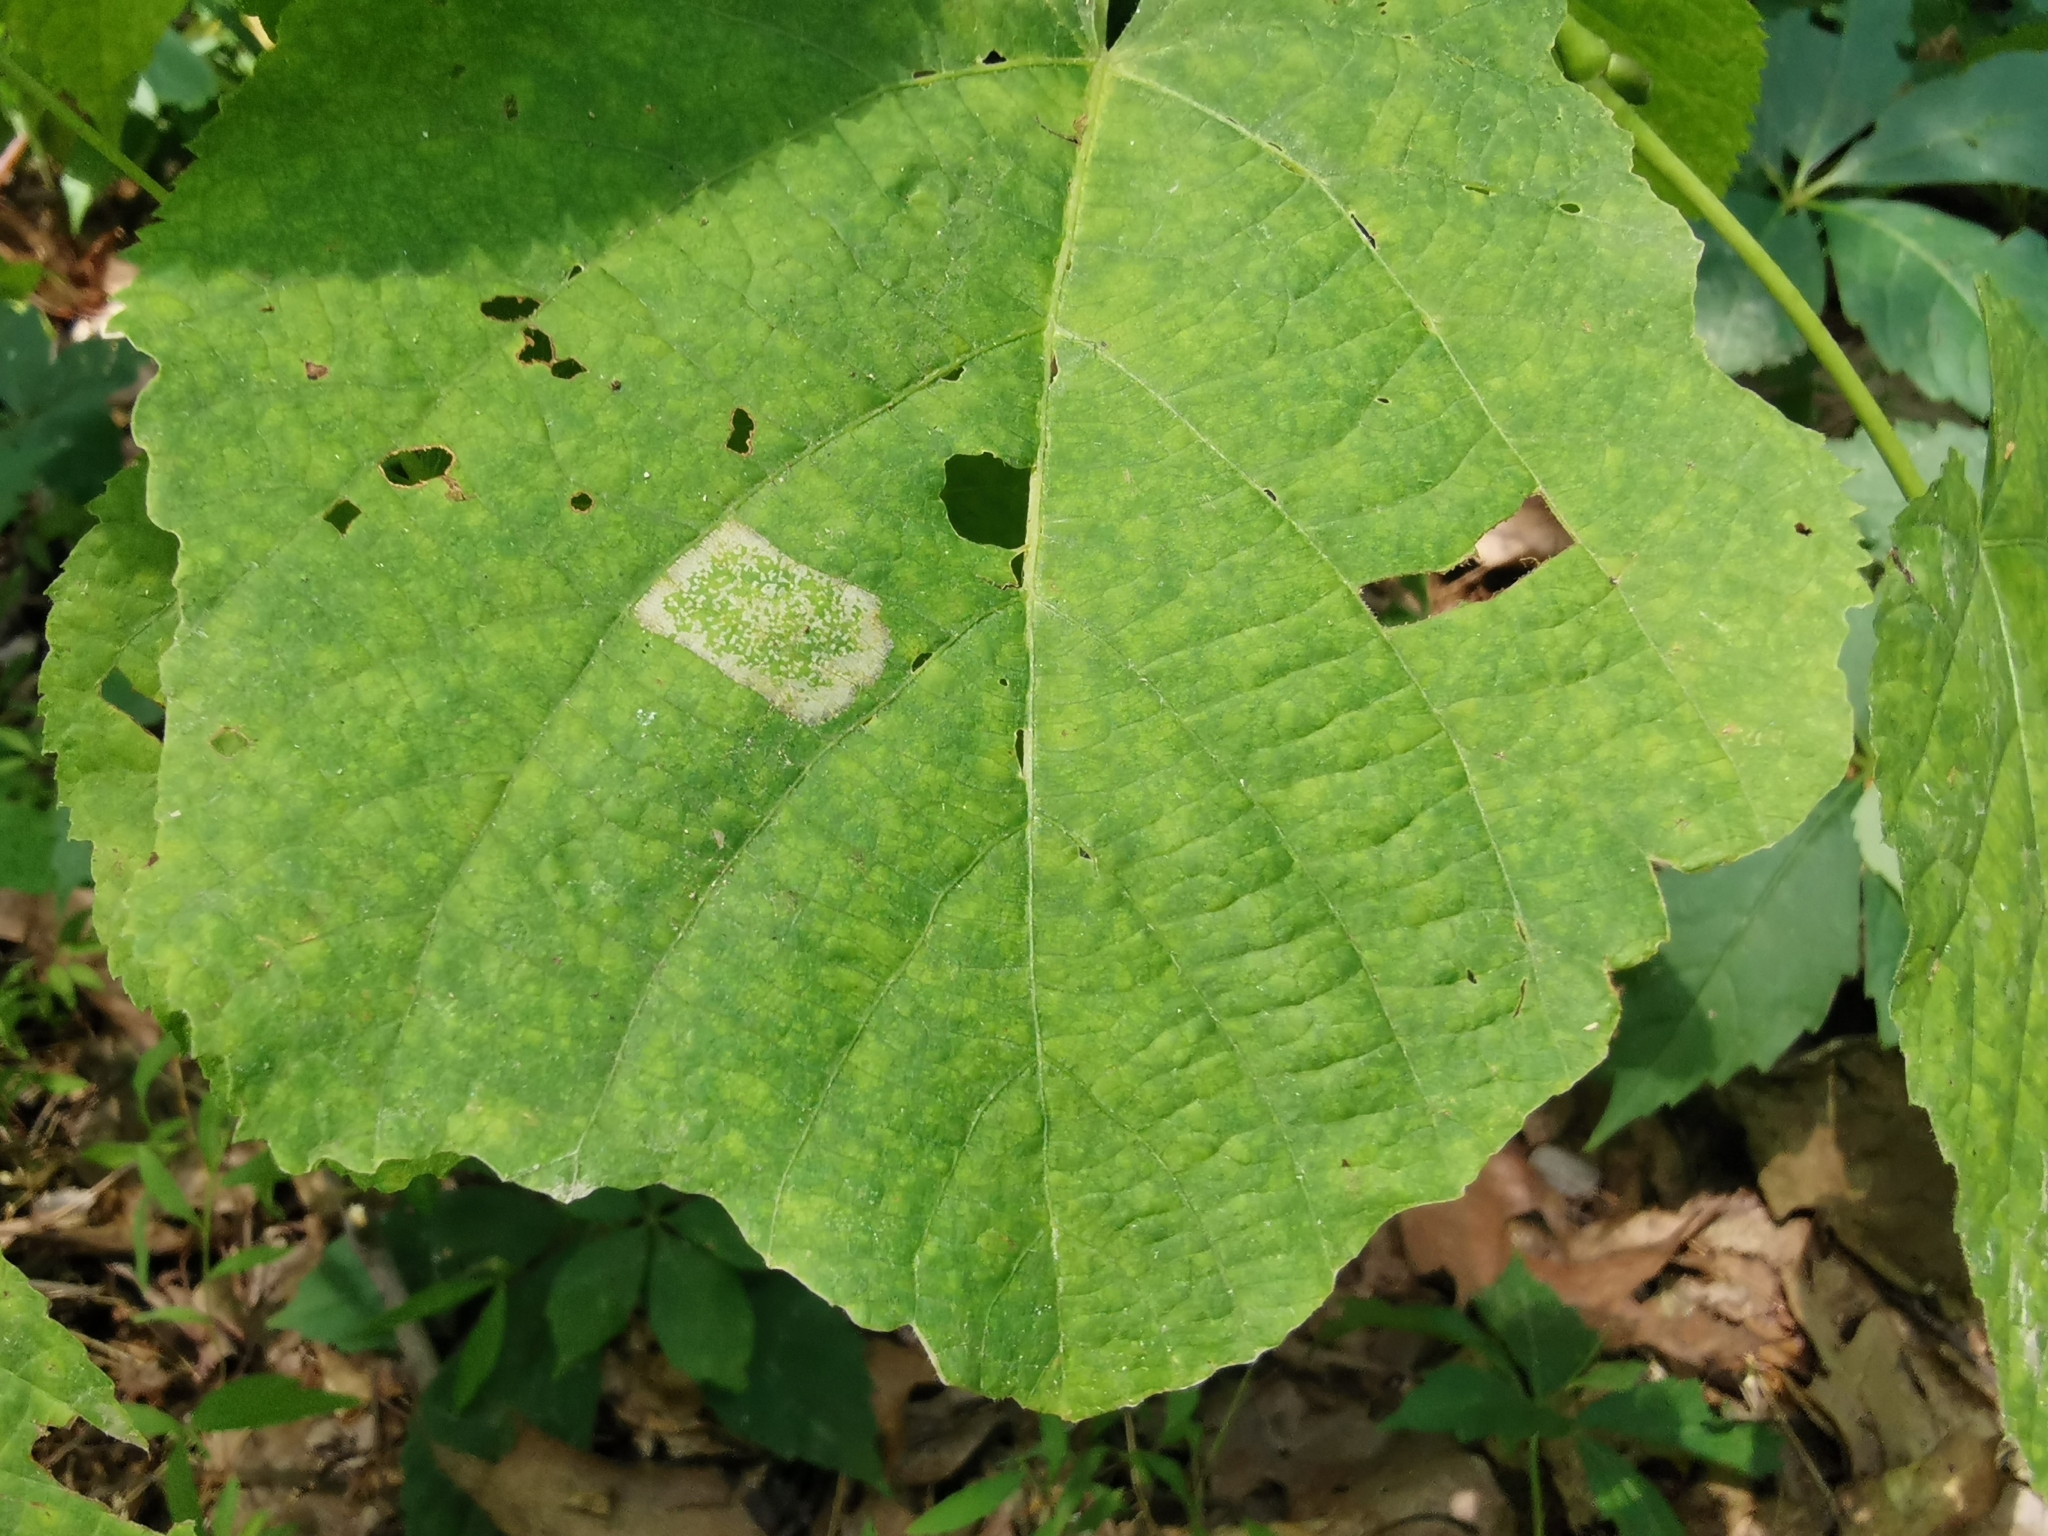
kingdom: Animalia
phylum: Arthropoda
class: Insecta
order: Lepidoptera
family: Gracillariidae
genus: Phyllonorycter
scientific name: Phyllonorycter lucetiella
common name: Basswood miner moth
